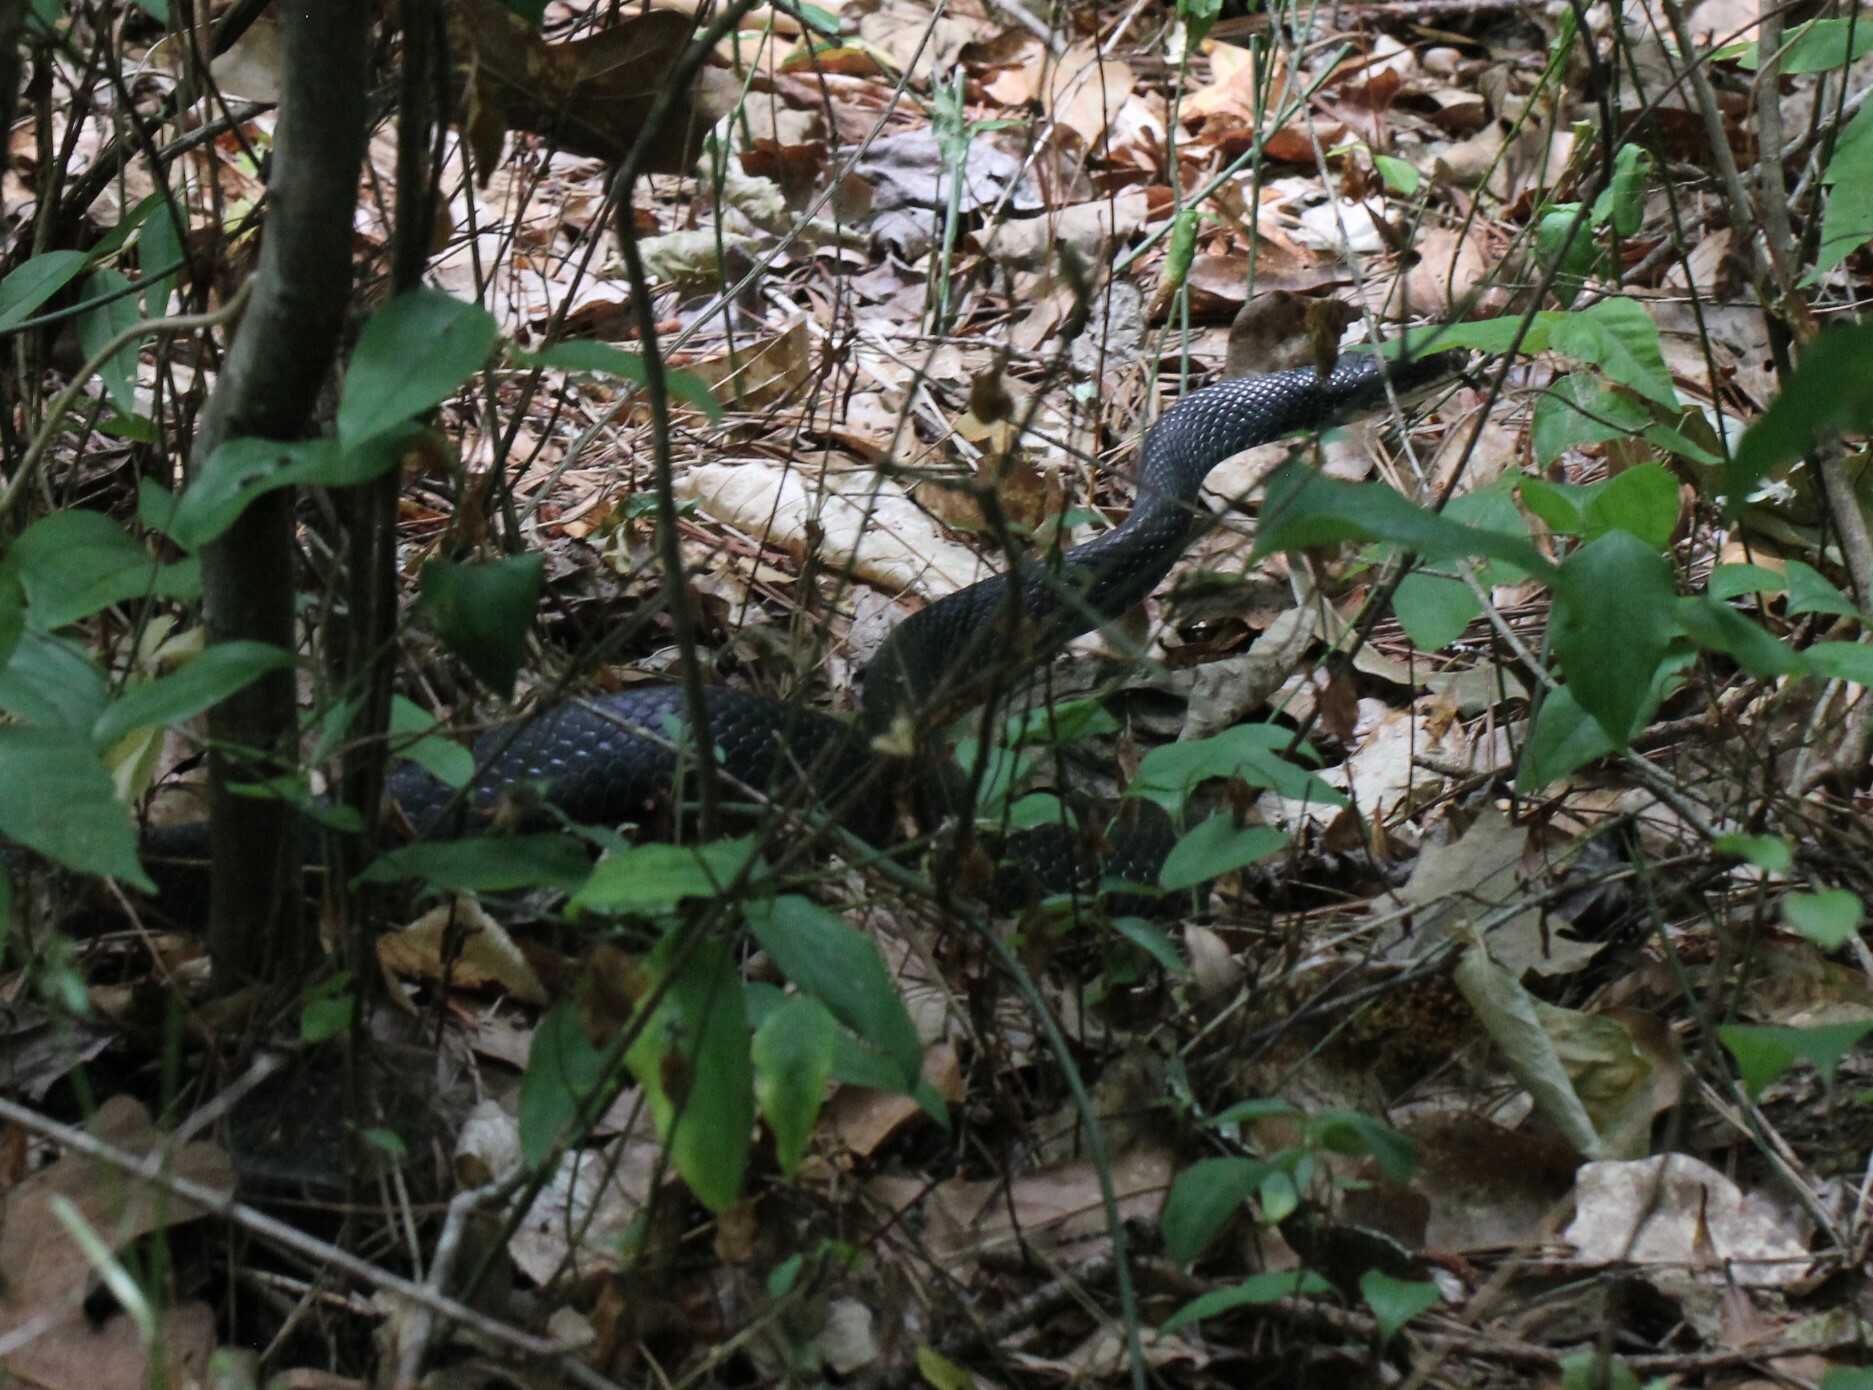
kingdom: Animalia
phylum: Chordata
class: Squamata
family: Colubridae
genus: Coluber
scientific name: Coluber constrictor
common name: Eastern racer
